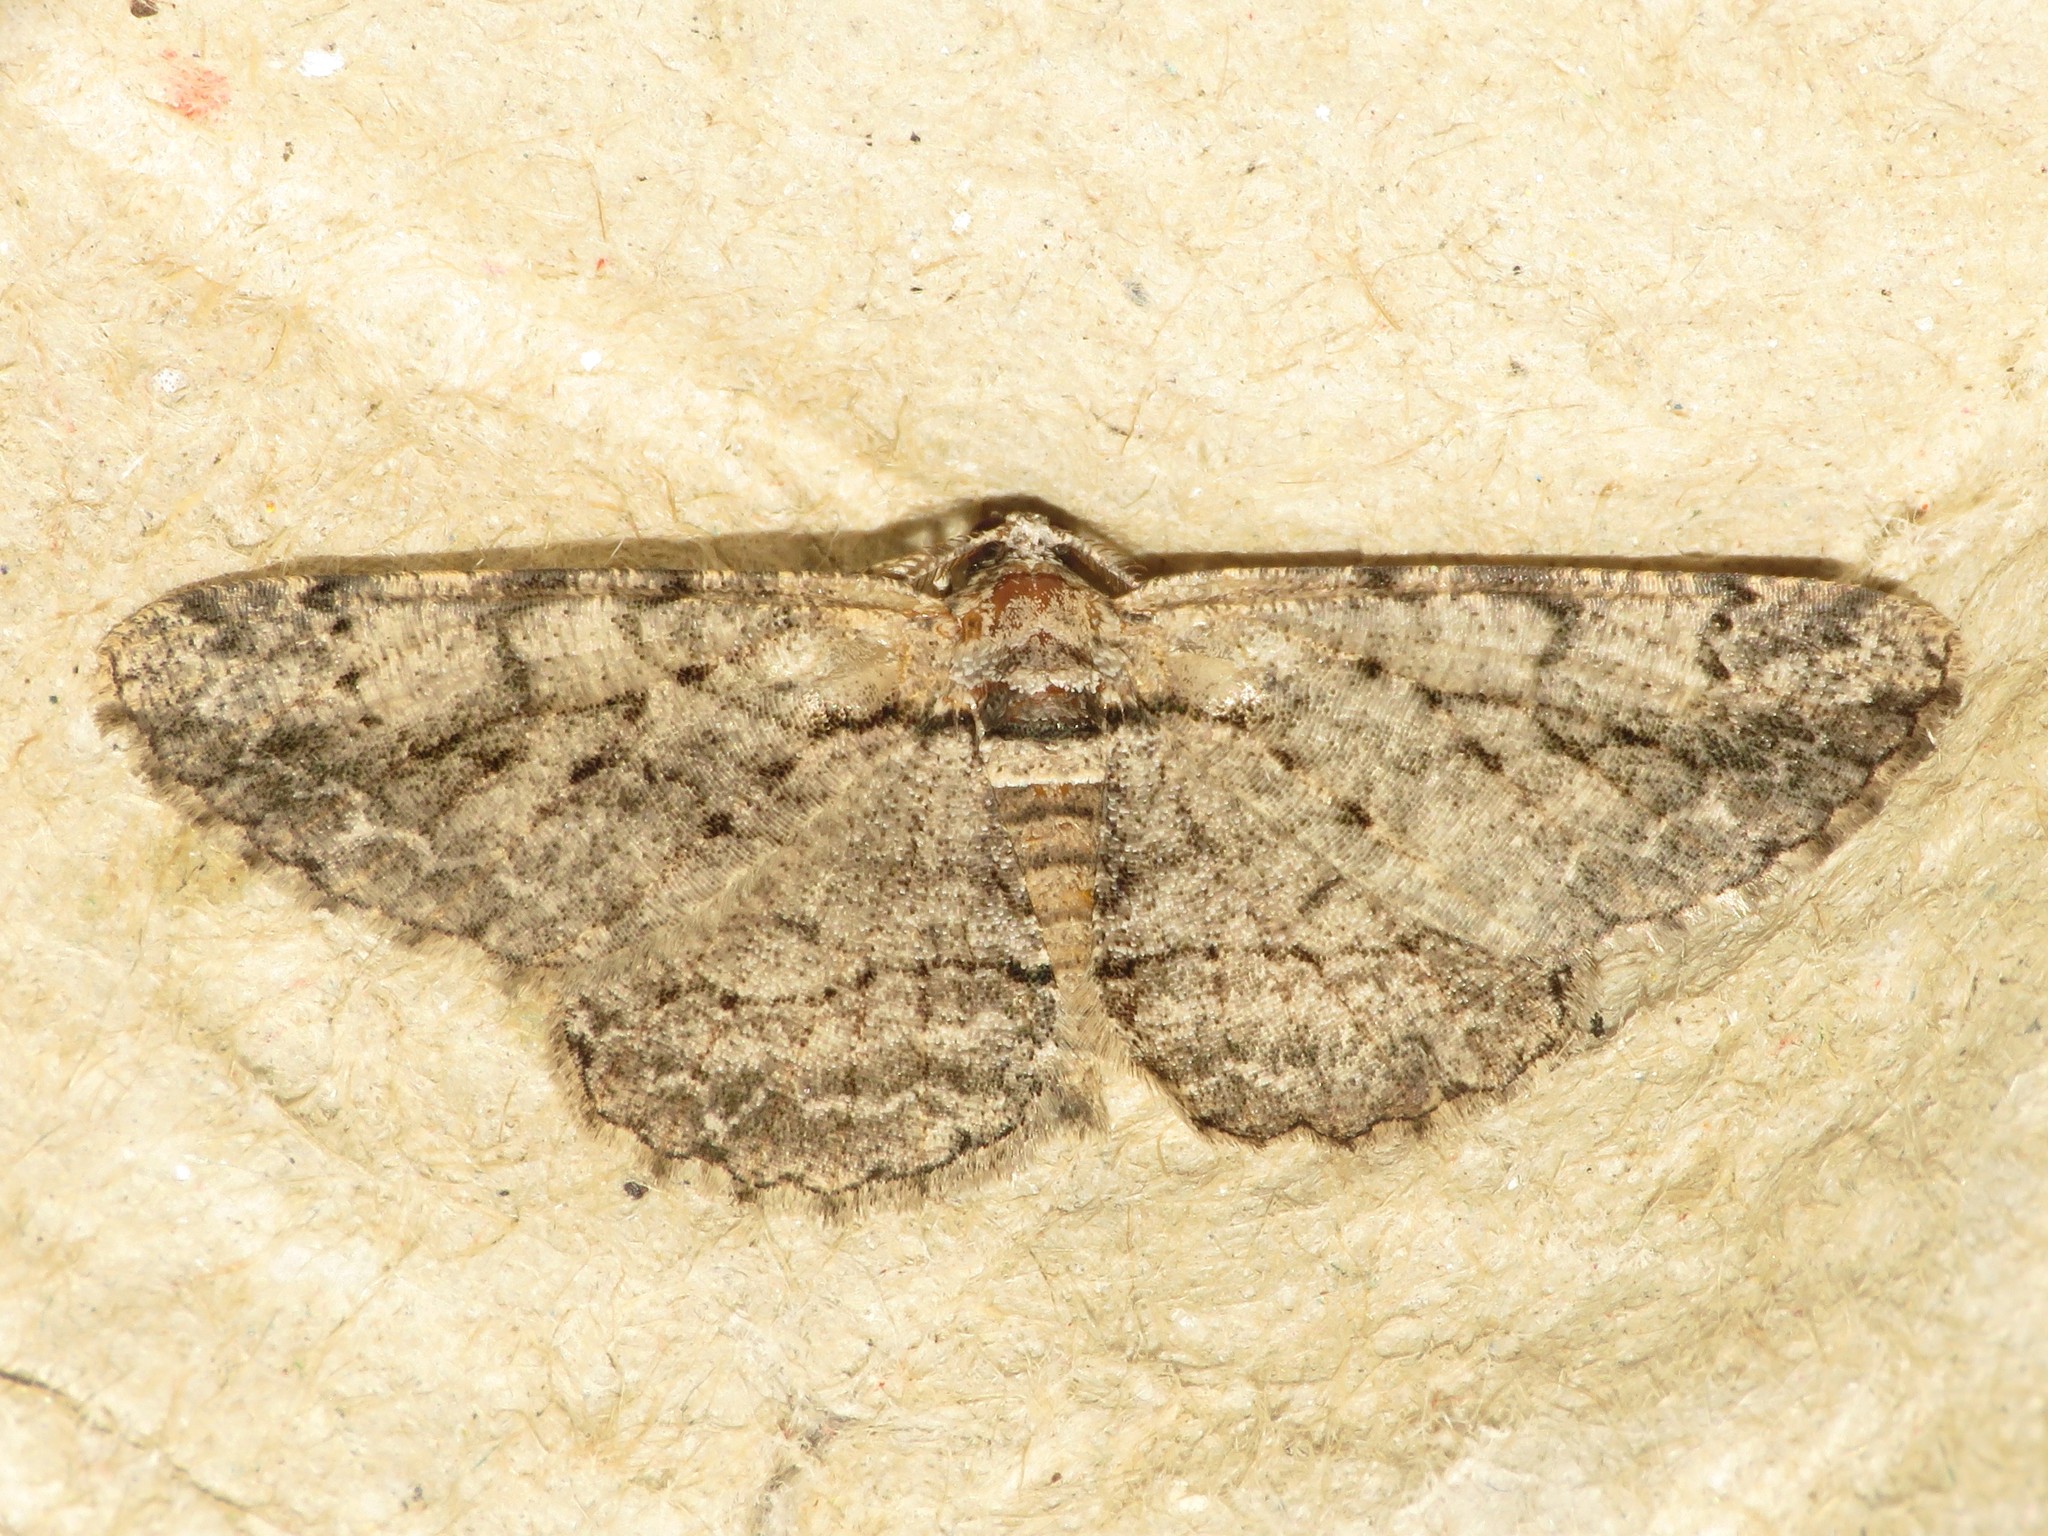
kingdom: Animalia
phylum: Arthropoda
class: Insecta
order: Lepidoptera
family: Geometridae
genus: Anavitrinella
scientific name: Anavitrinella pampinaria
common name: Common gray
